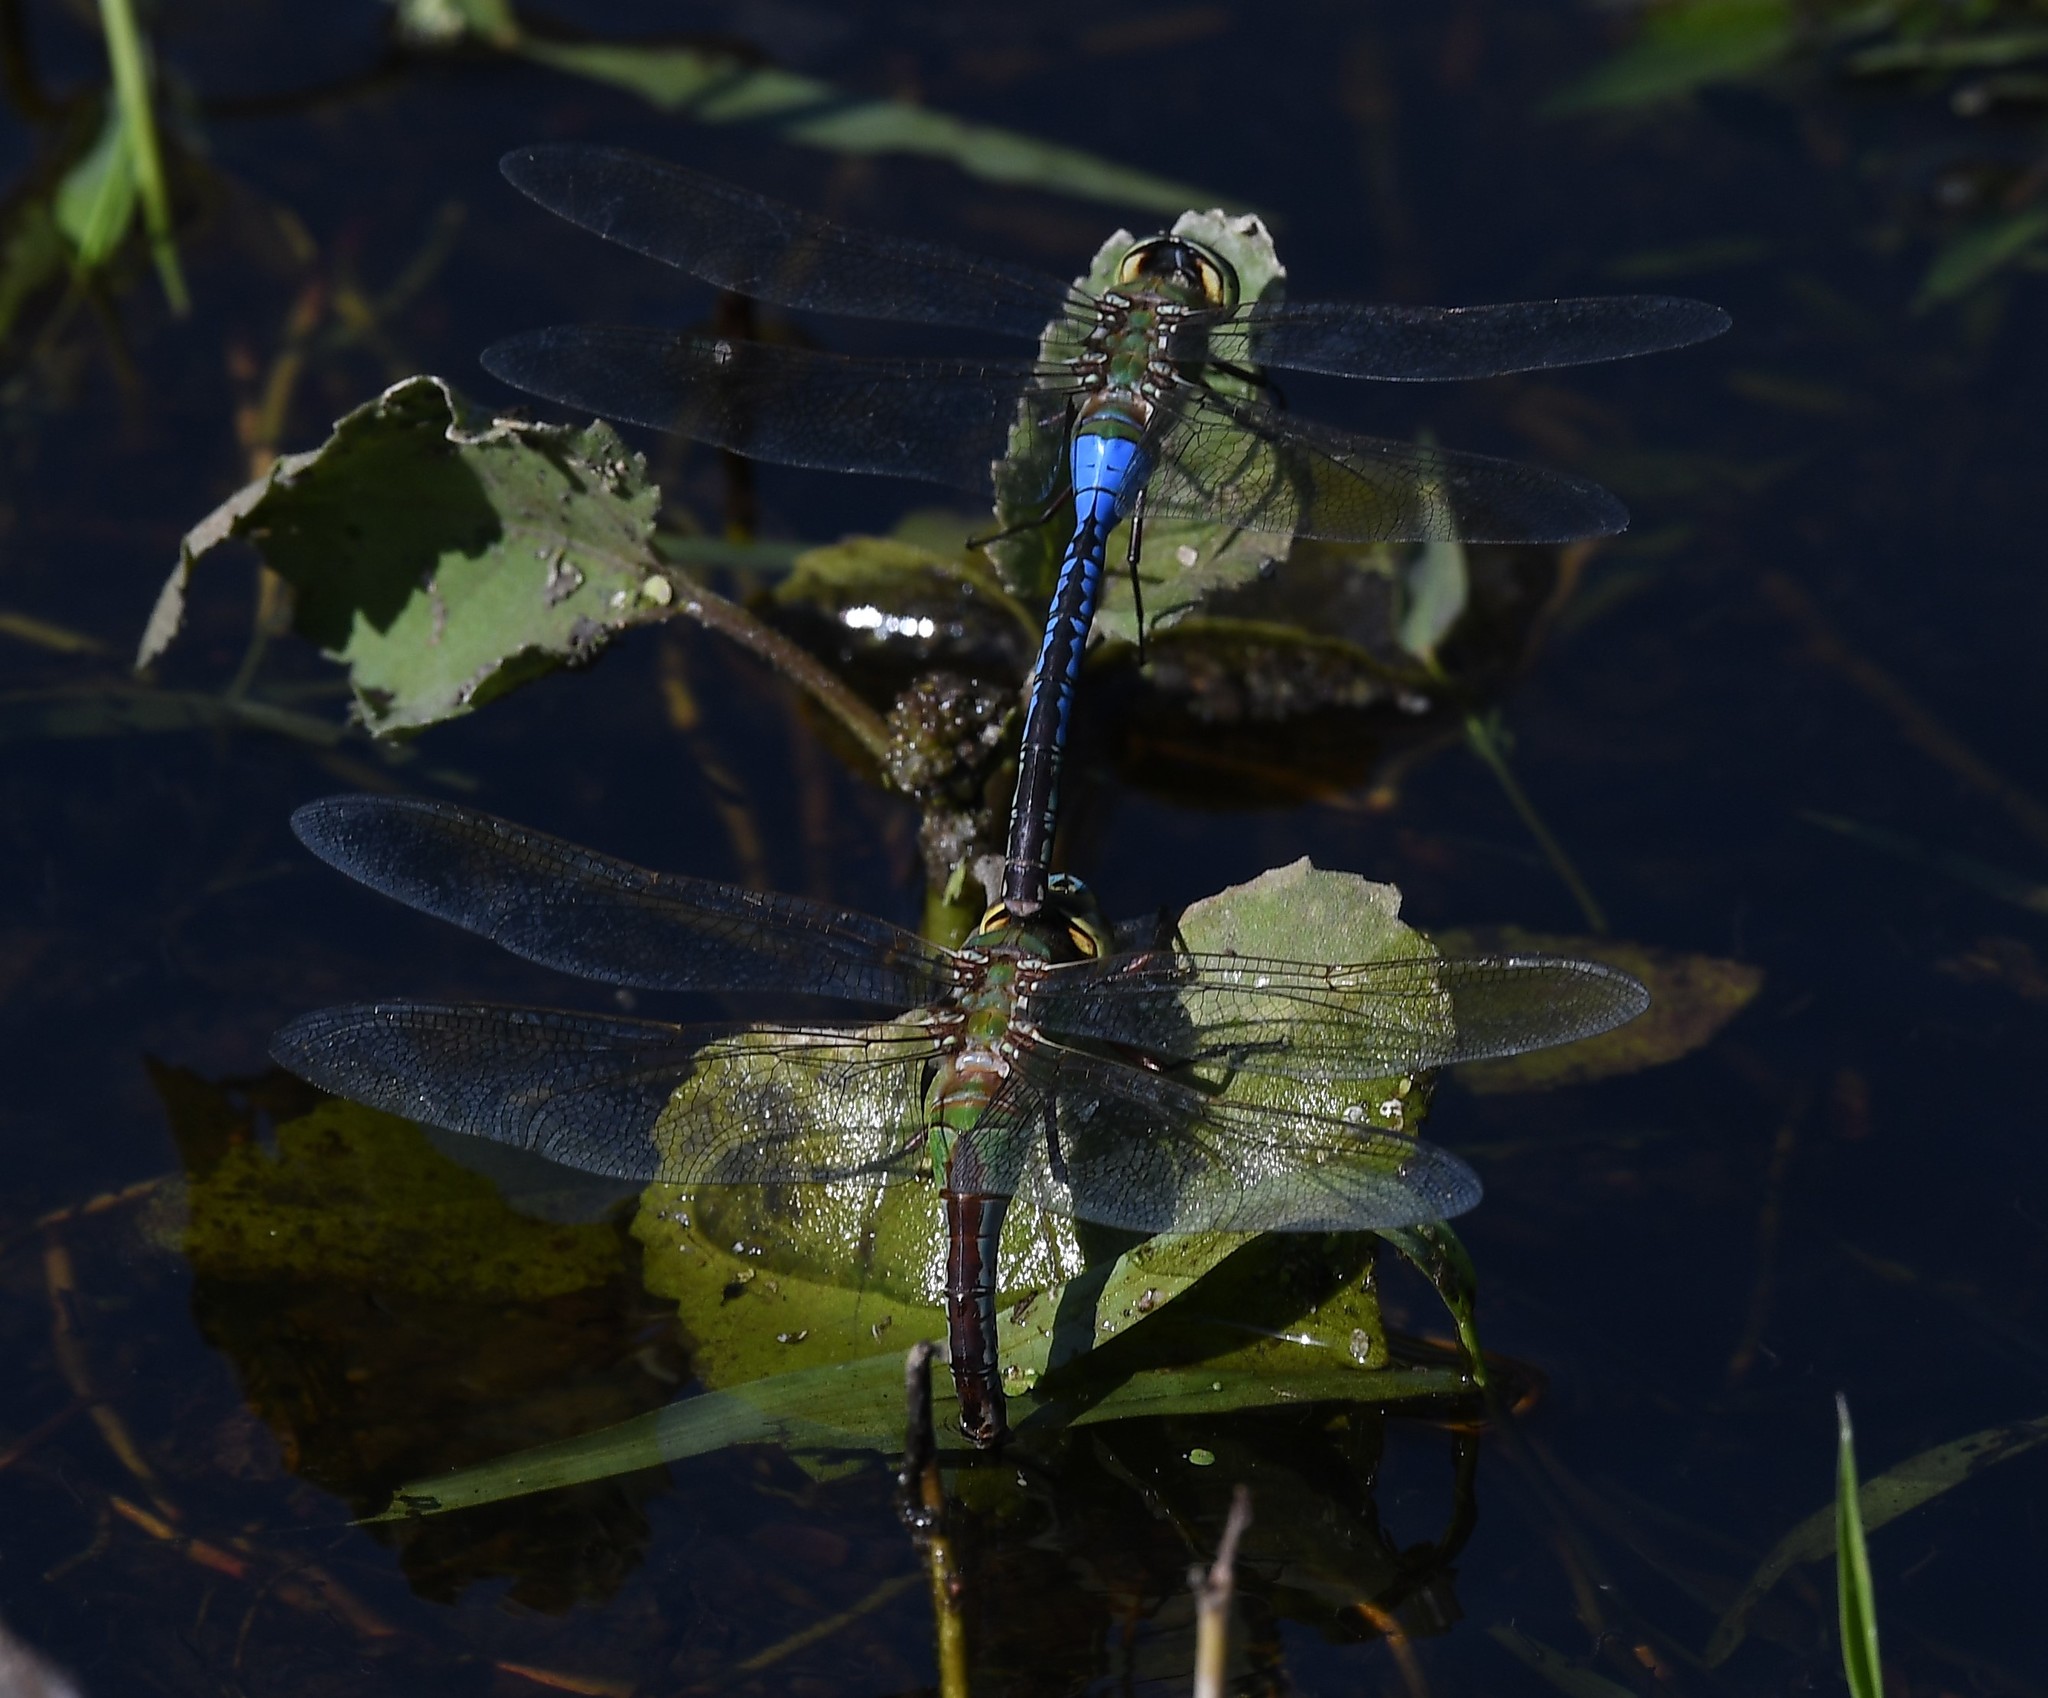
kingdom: Animalia
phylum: Arthropoda
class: Insecta
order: Odonata
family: Aeshnidae
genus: Anax
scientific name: Anax junius
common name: Common green darner
